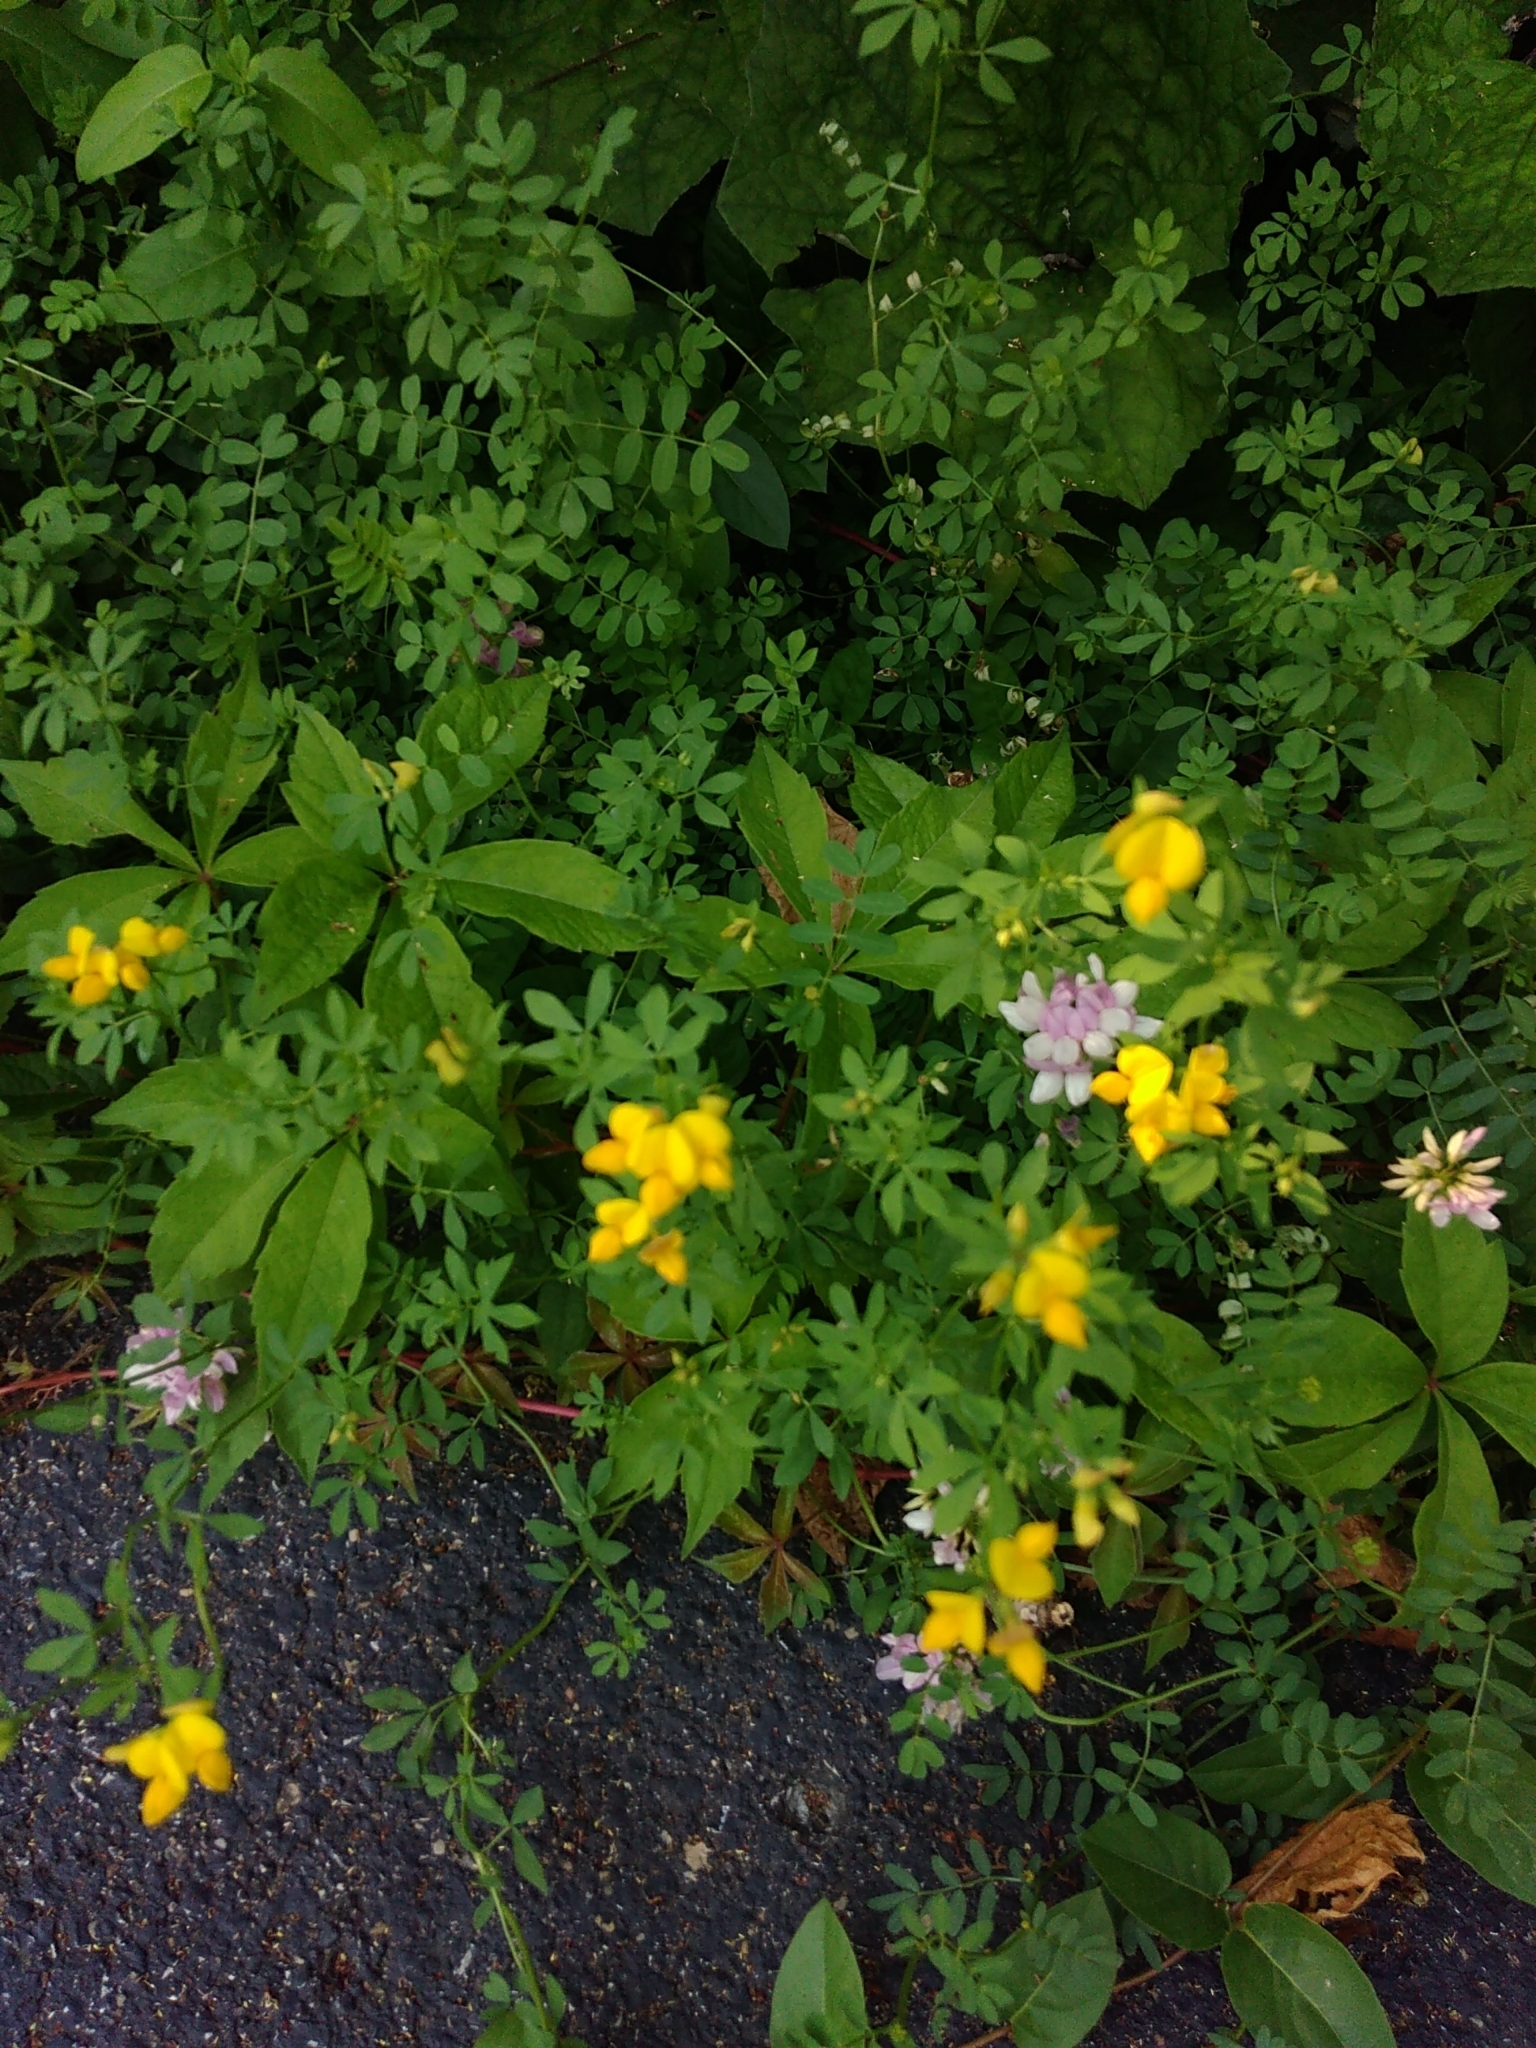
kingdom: Plantae
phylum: Tracheophyta
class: Magnoliopsida
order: Fabales
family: Fabaceae
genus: Lotus
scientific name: Lotus corniculatus
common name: Common bird's-foot-trefoil
